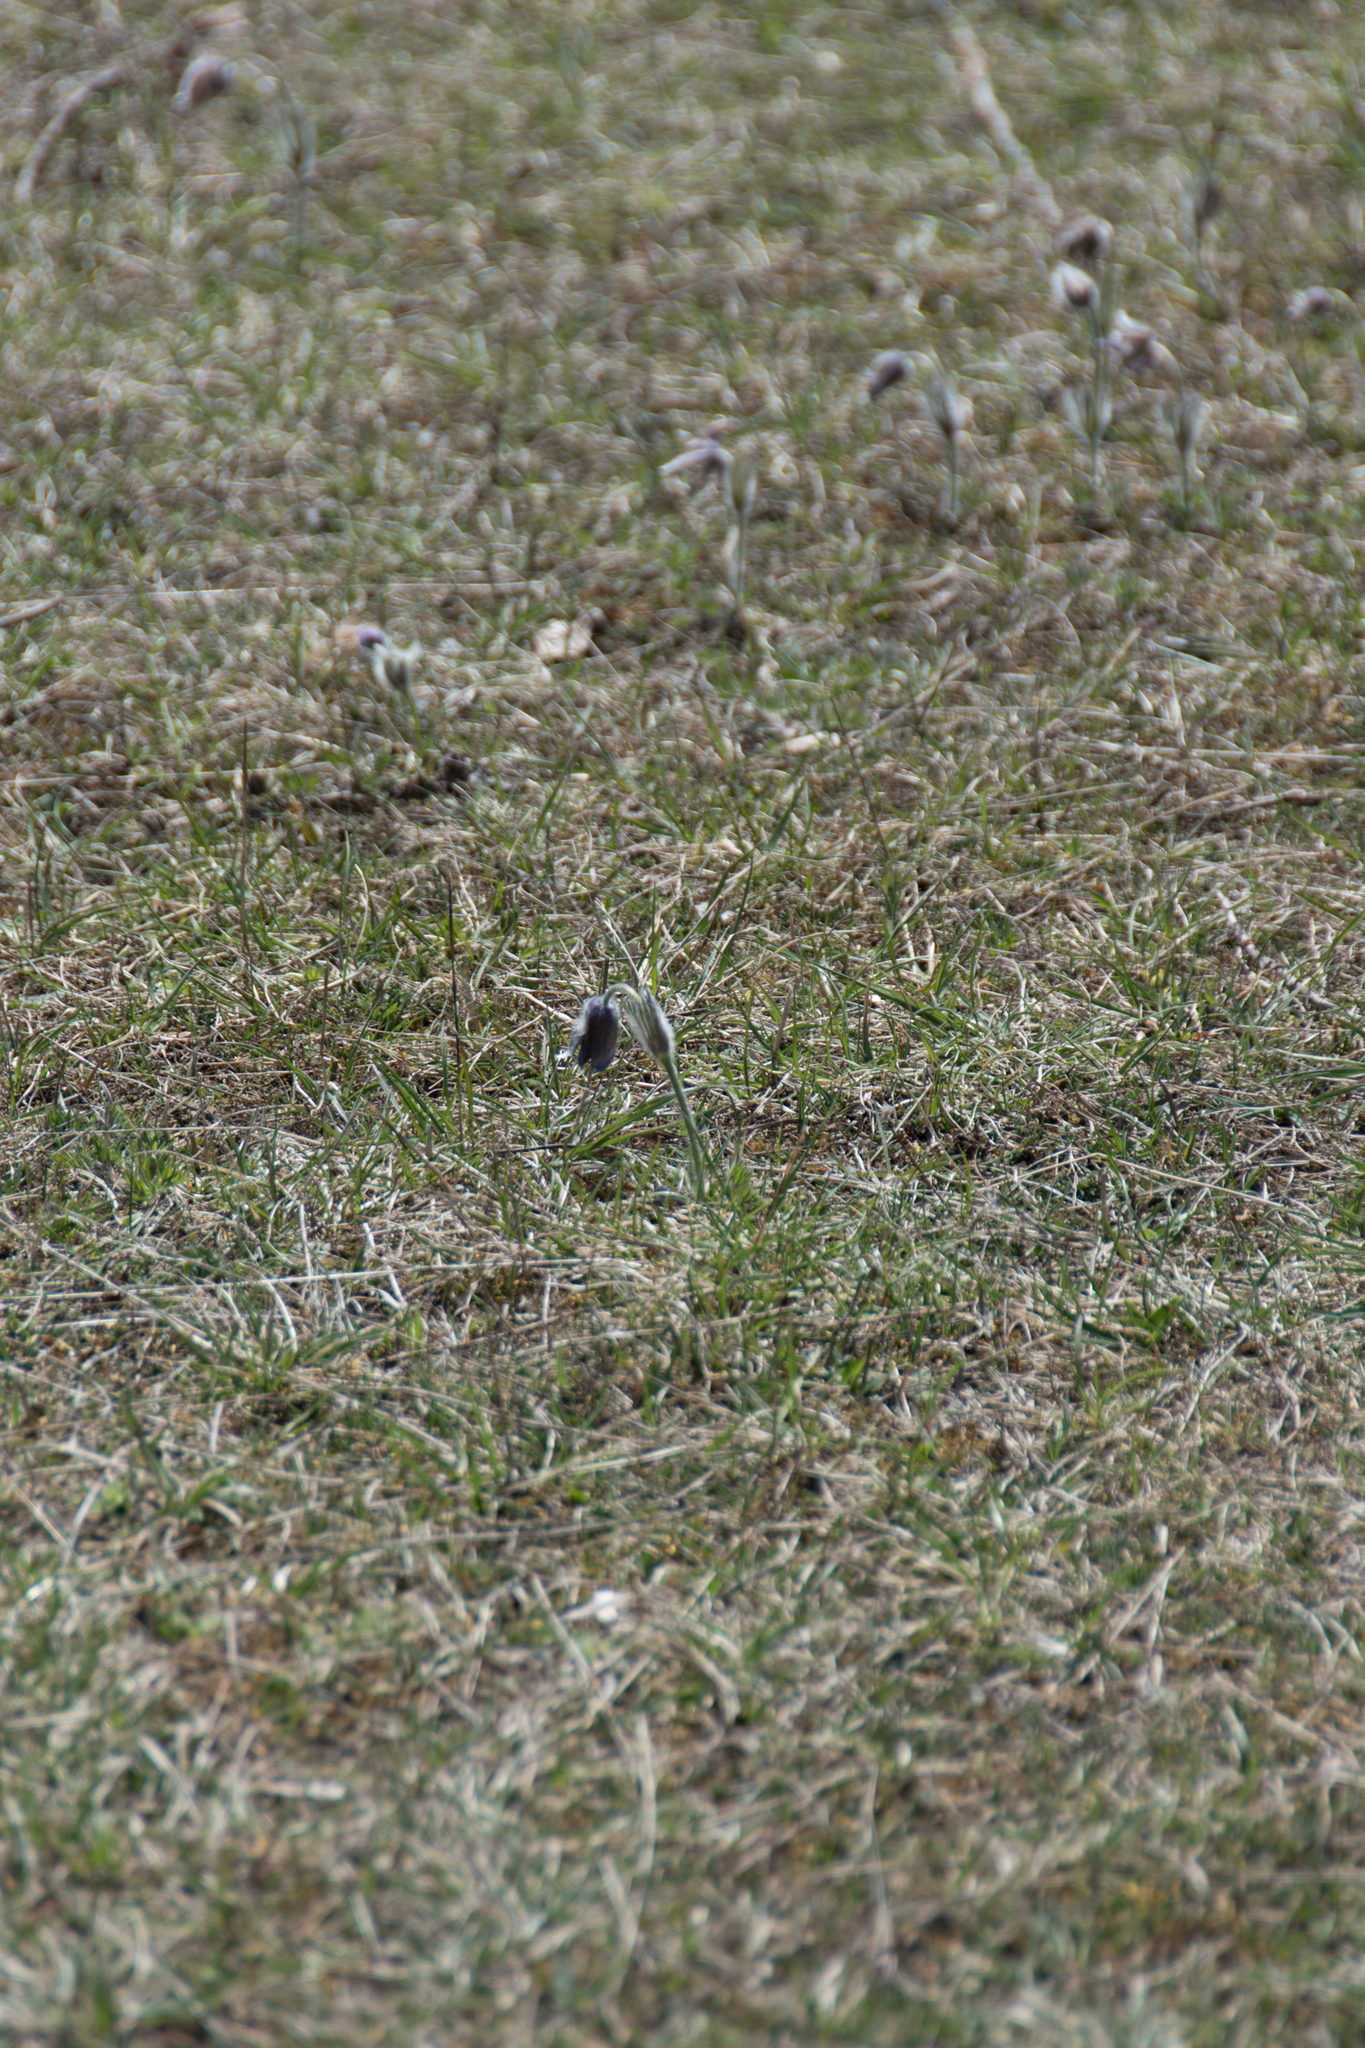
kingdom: Plantae
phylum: Tracheophyta
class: Magnoliopsida
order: Ranunculales
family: Ranunculaceae
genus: Pulsatilla
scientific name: Pulsatilla vulgaris
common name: Pasqueflower
